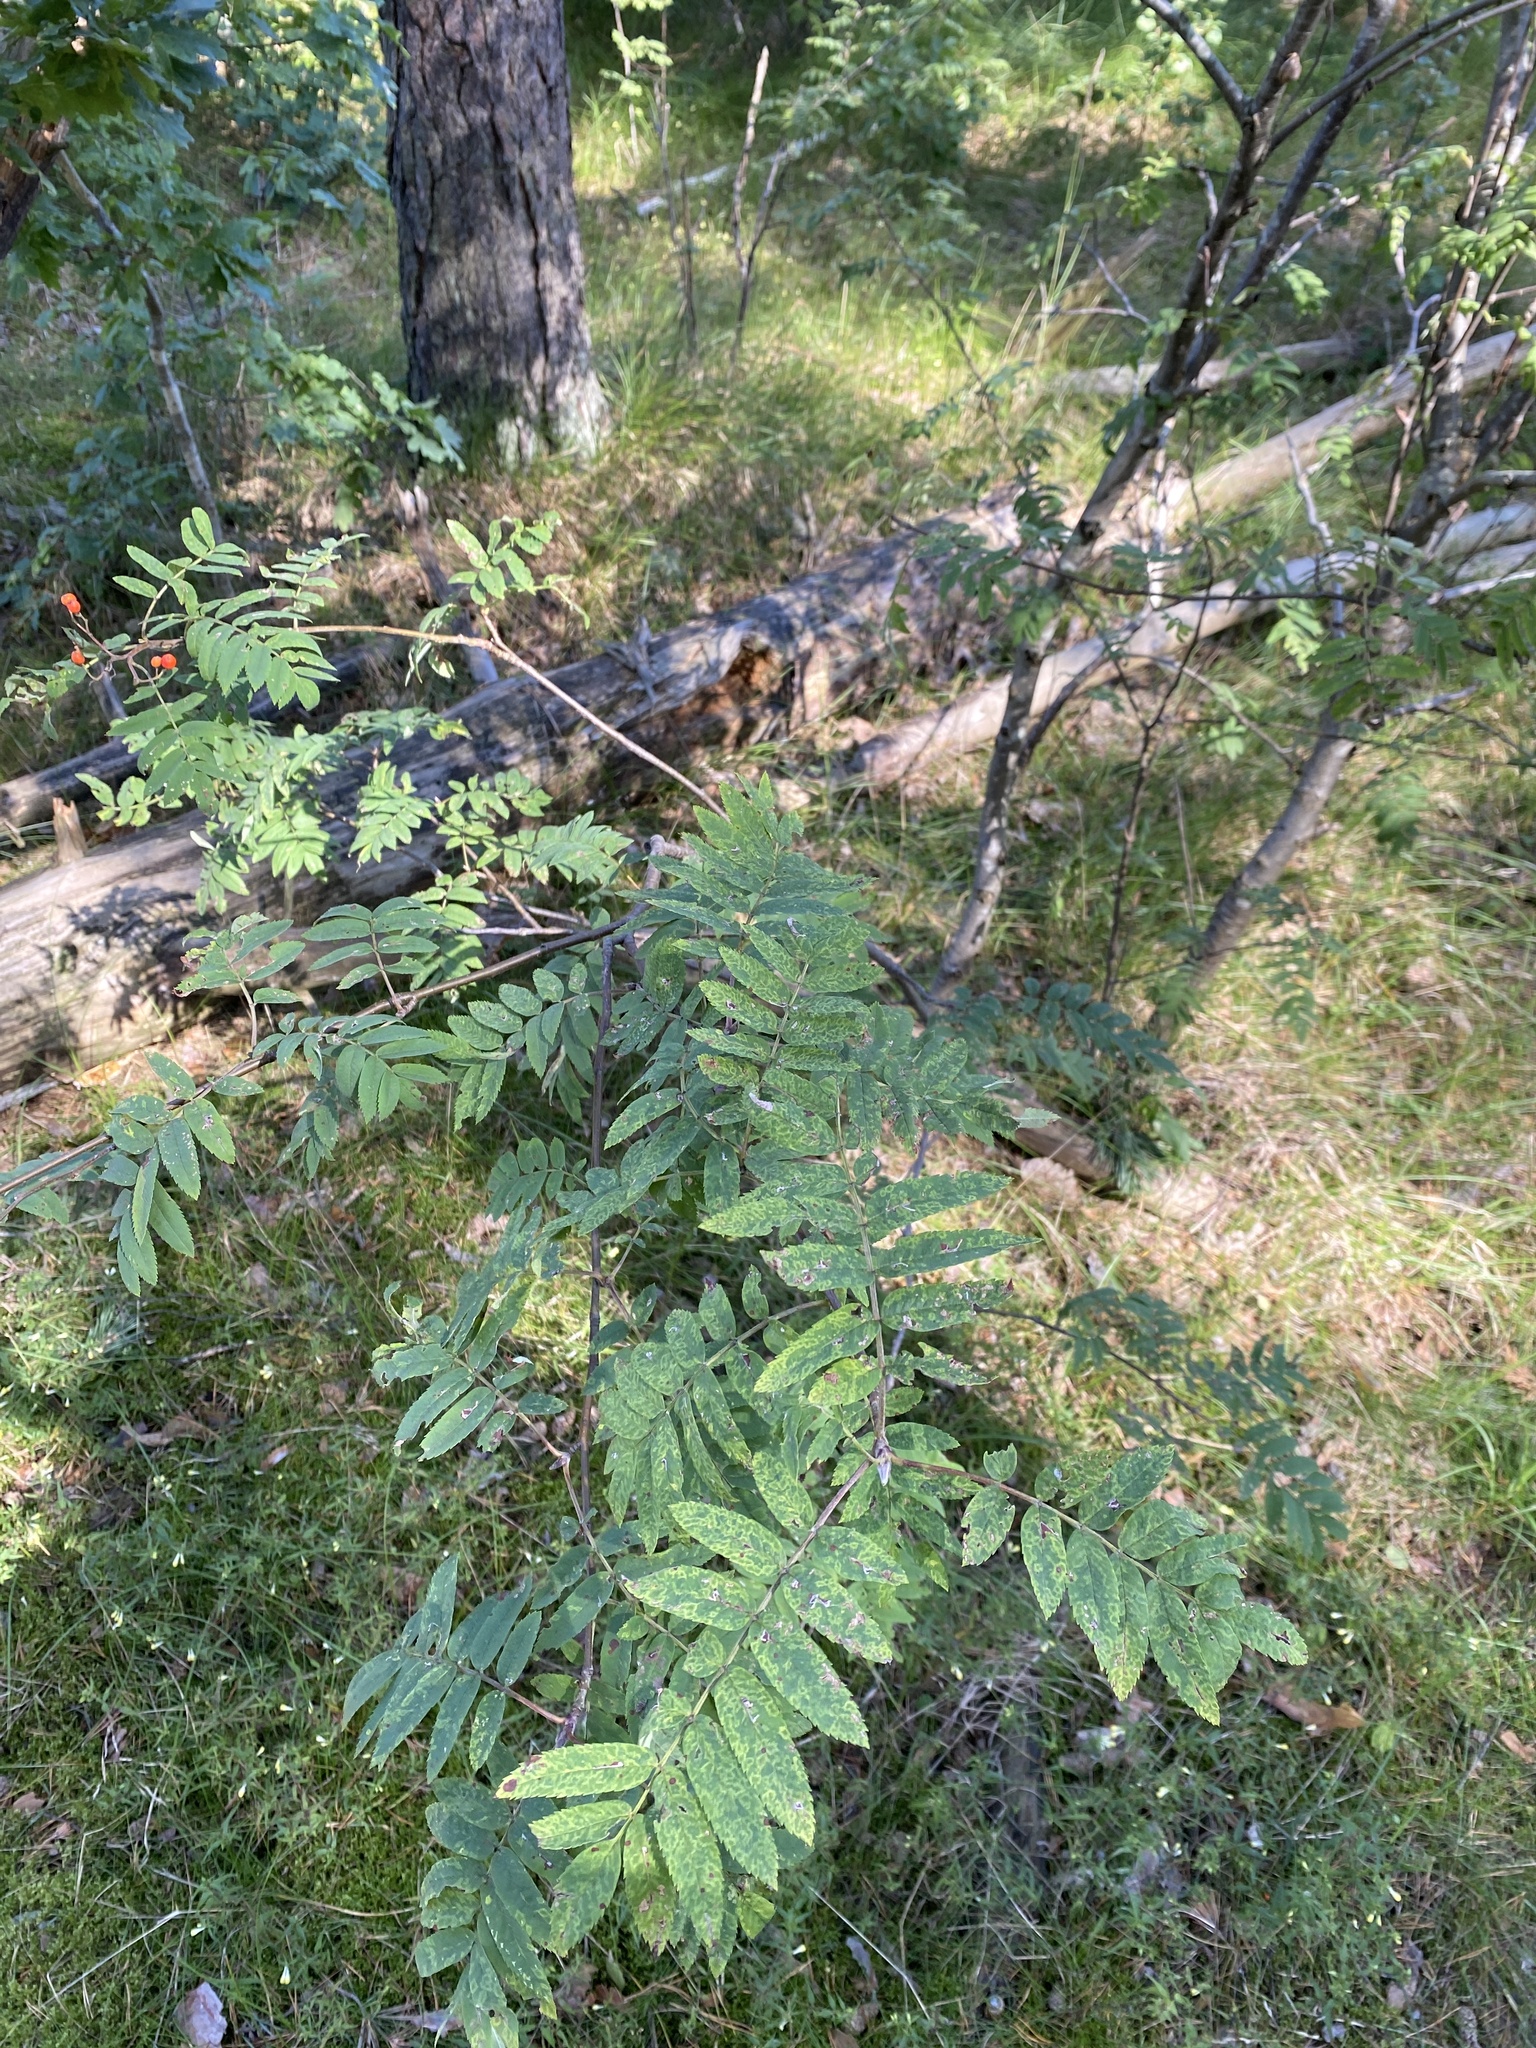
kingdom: Plantae
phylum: Tracheophyta
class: Magnoliopsida
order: Rosales
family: Rosaceae
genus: Sorbus
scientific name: Sorbus aucuparia
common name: Rowan
